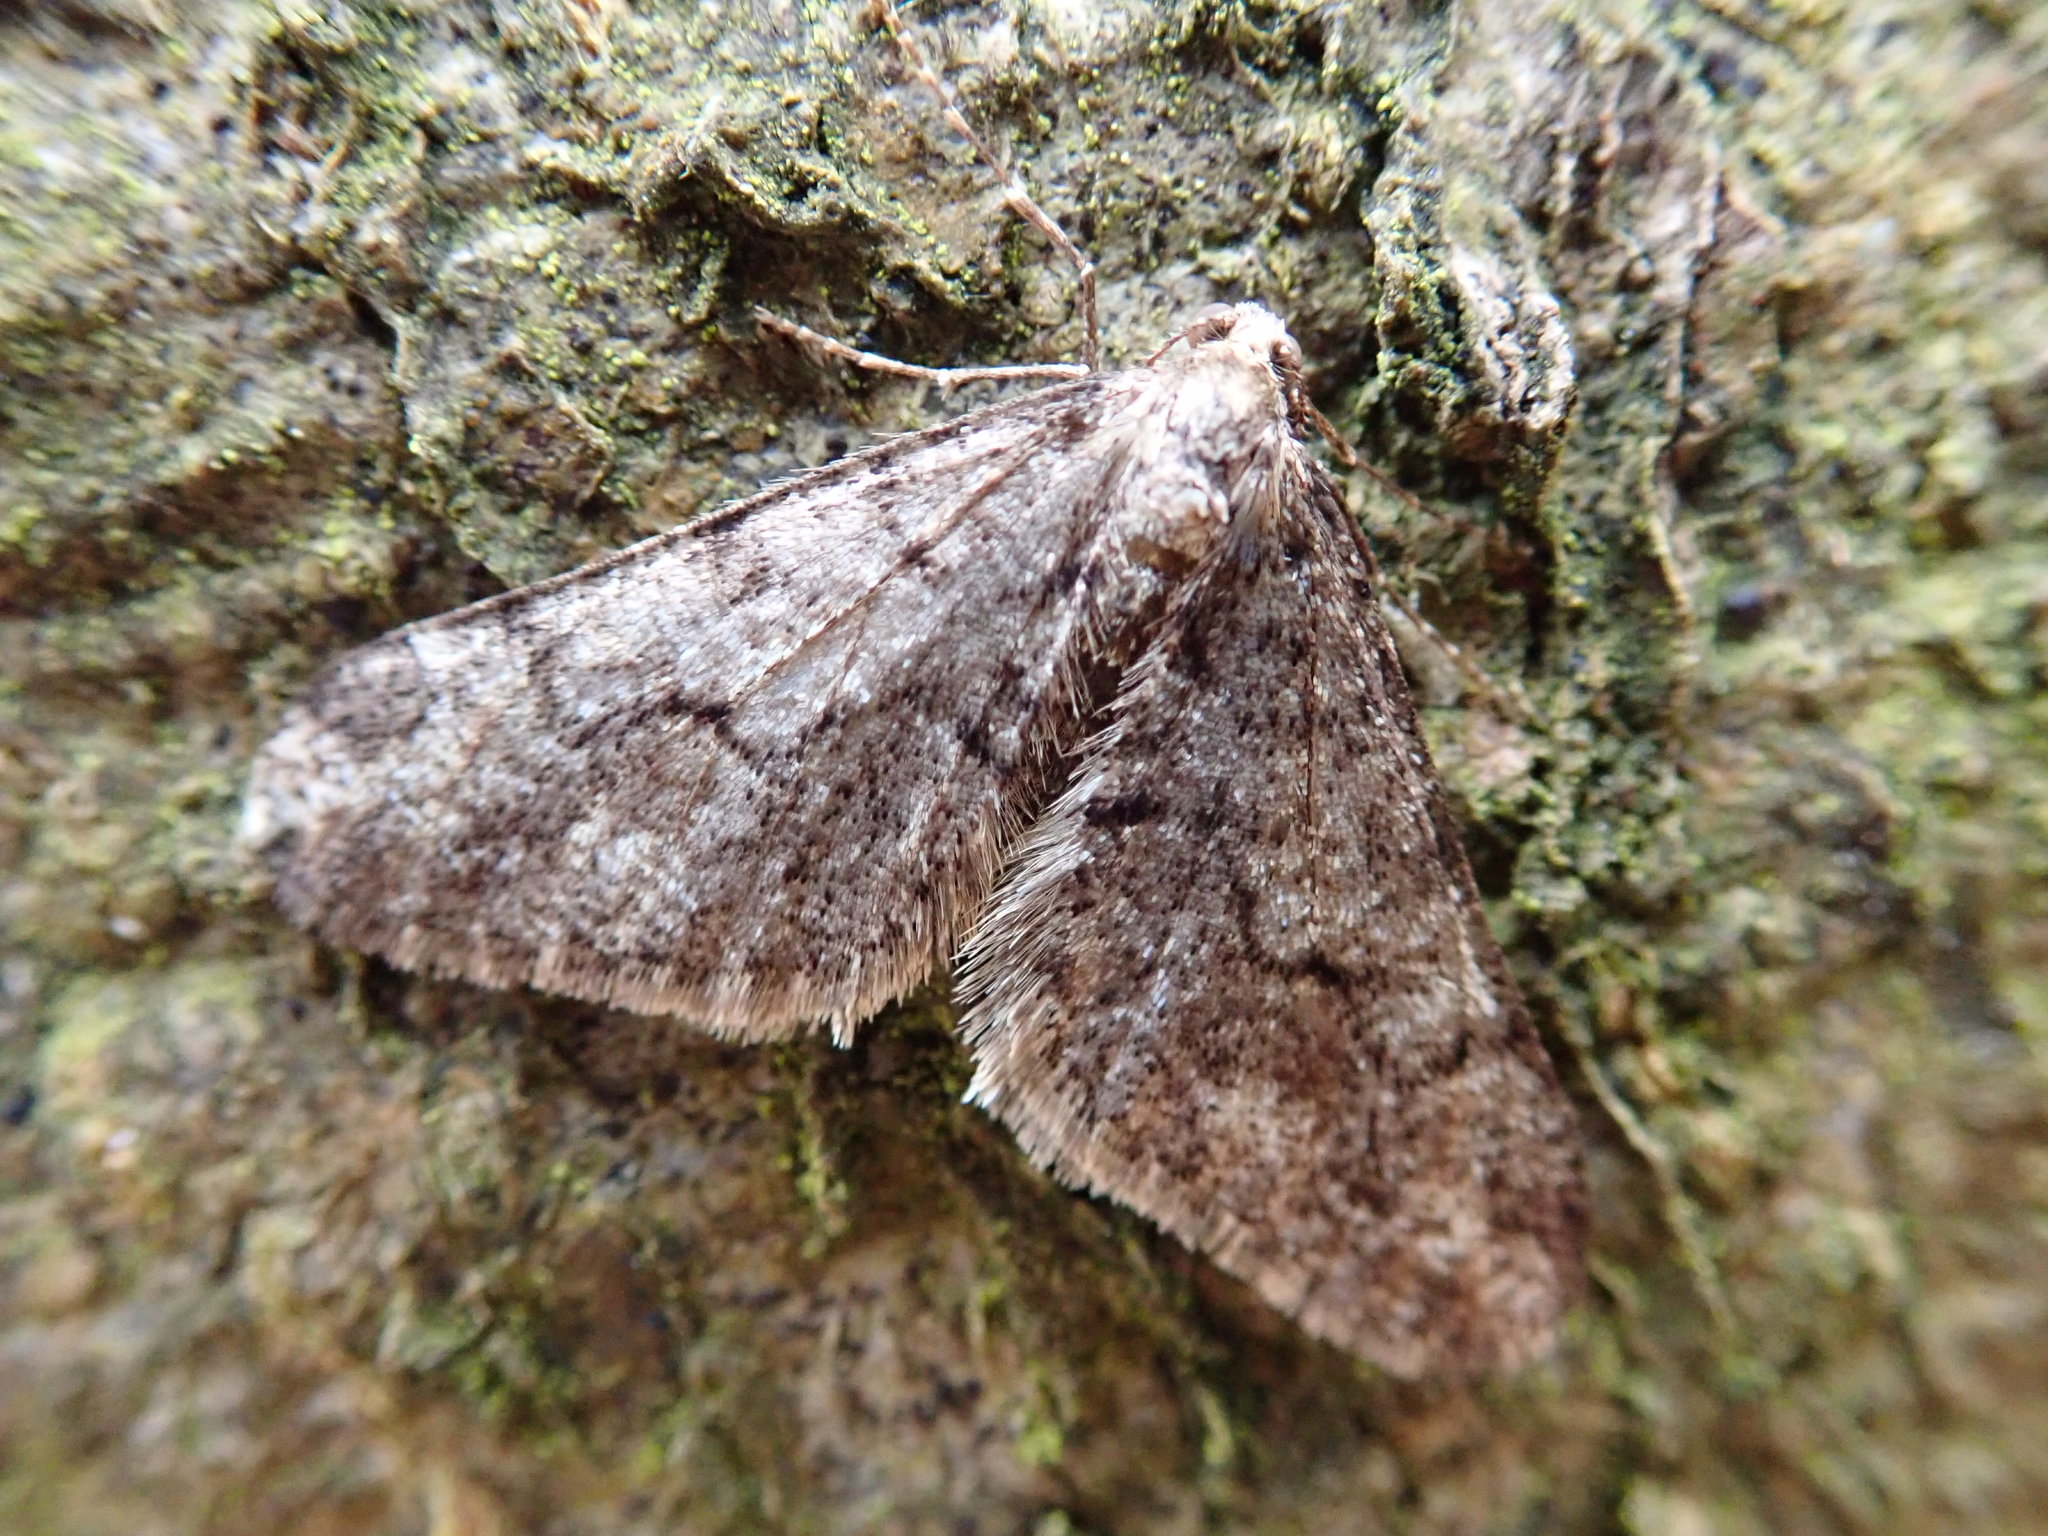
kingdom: Animalia
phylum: Arthropoda
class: Insecta
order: Lepidoptera
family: Geometridae
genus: Agriopis
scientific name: Agriopis leucophaearia
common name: Spring usher
